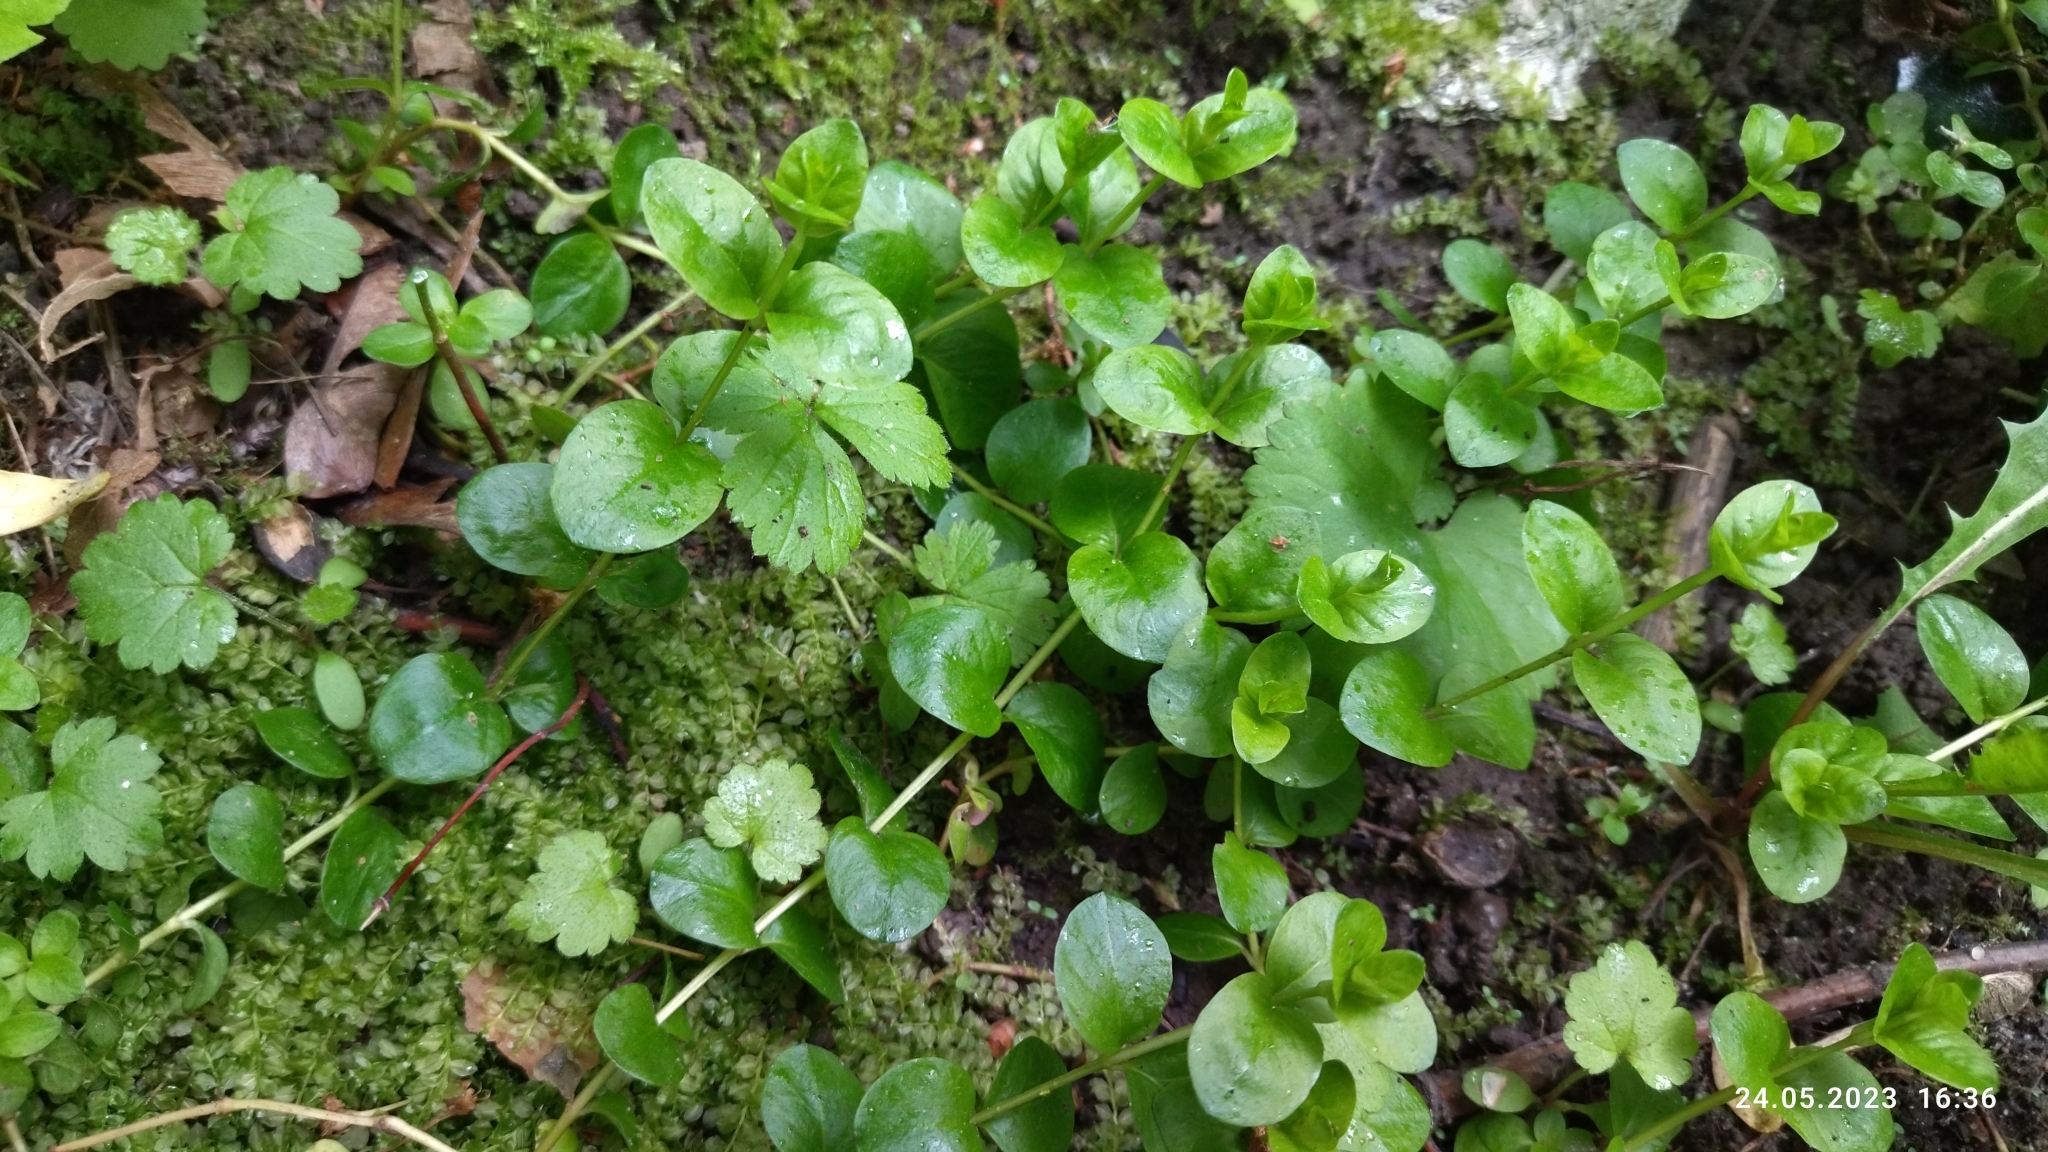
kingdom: Plantae
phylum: Tracheophyta
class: Magnoliopsida
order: Ericales
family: Primulaceae
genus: Lysimachia
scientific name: Lysimachia nummularia
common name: Moneywort
